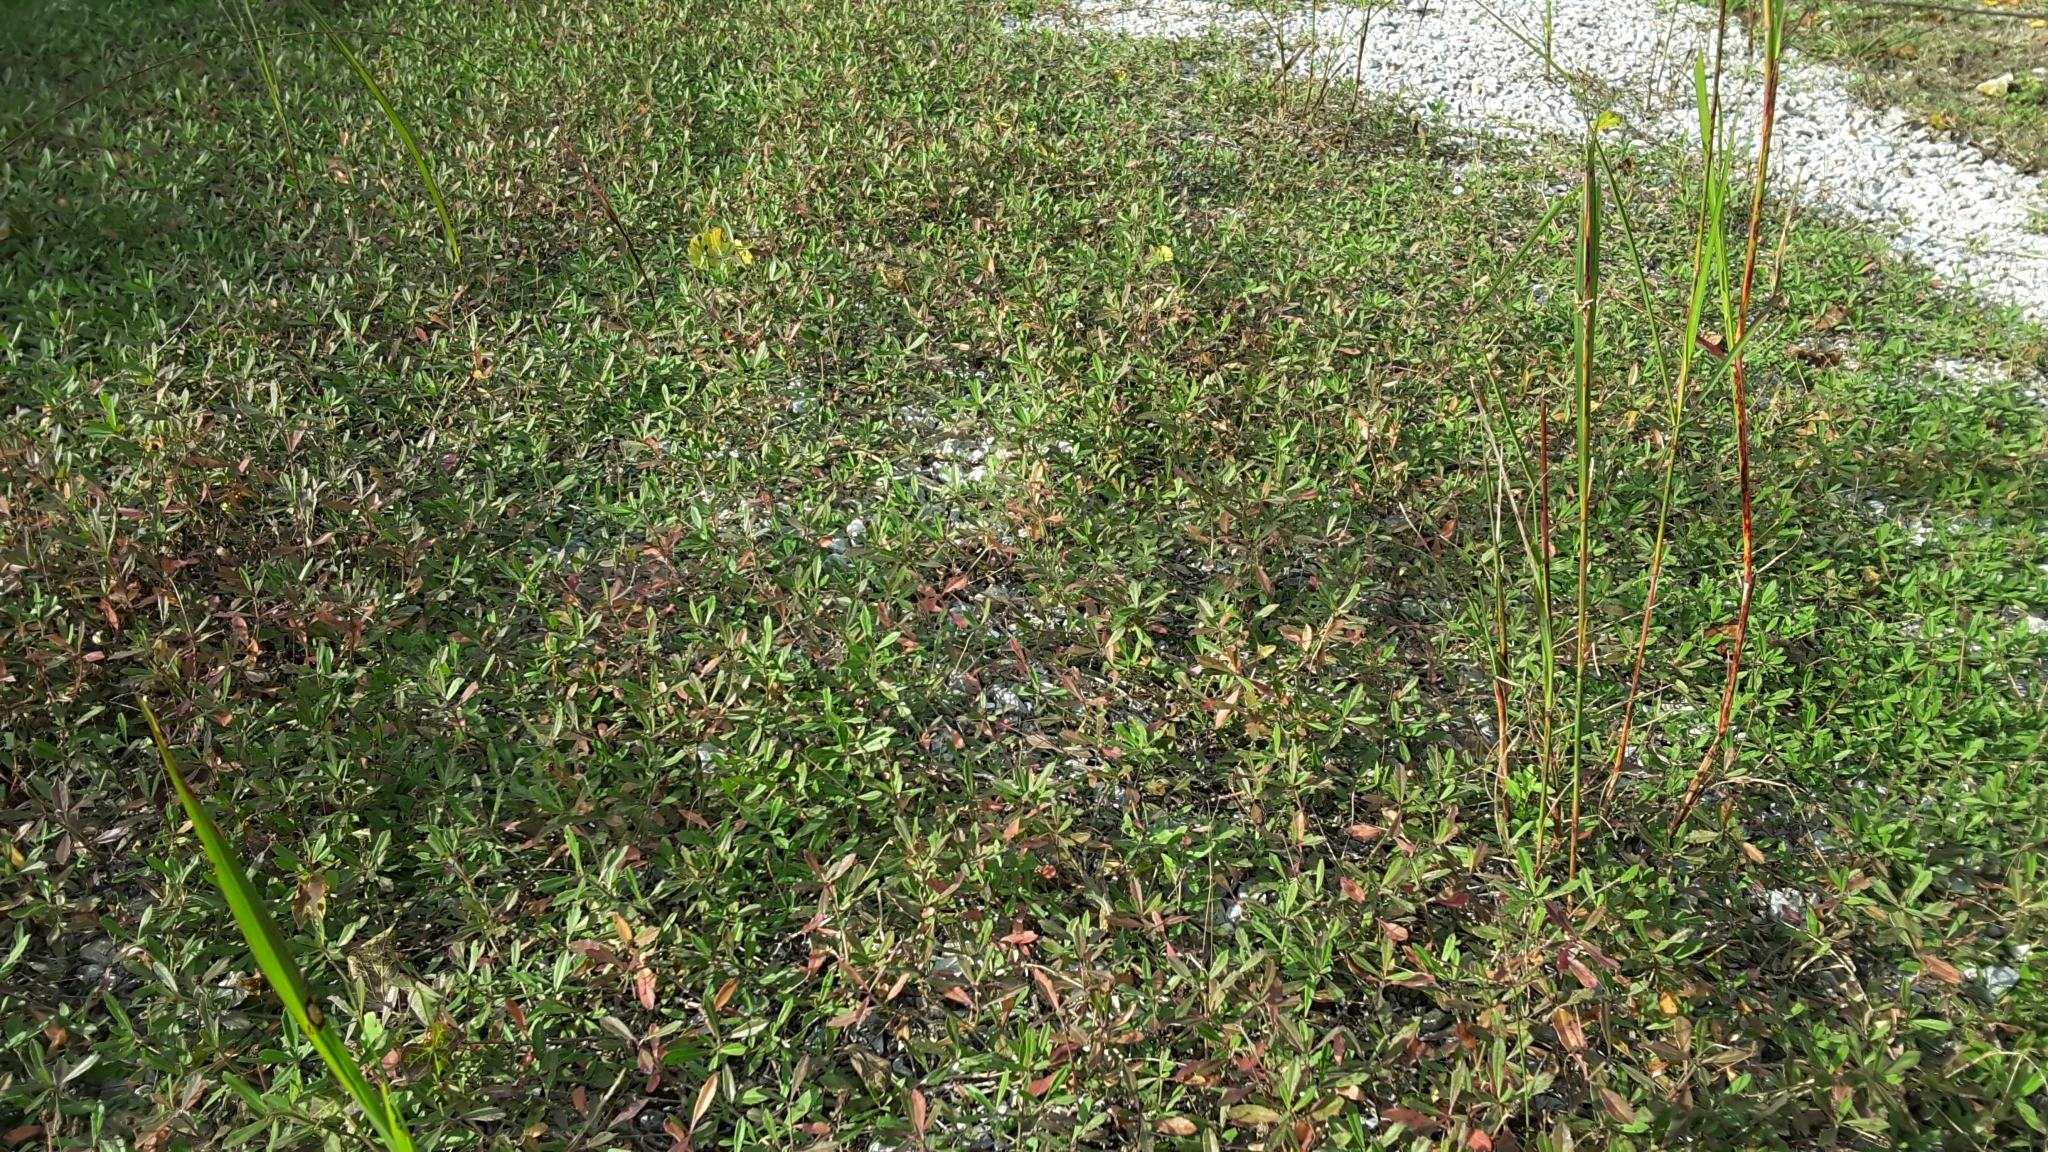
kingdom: Plantae
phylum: Tracheophyta
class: Magnoliopsida
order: Lamiales
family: Verbenaceae
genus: Phyla
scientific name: Phyla nodiflora
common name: Frogfruit
